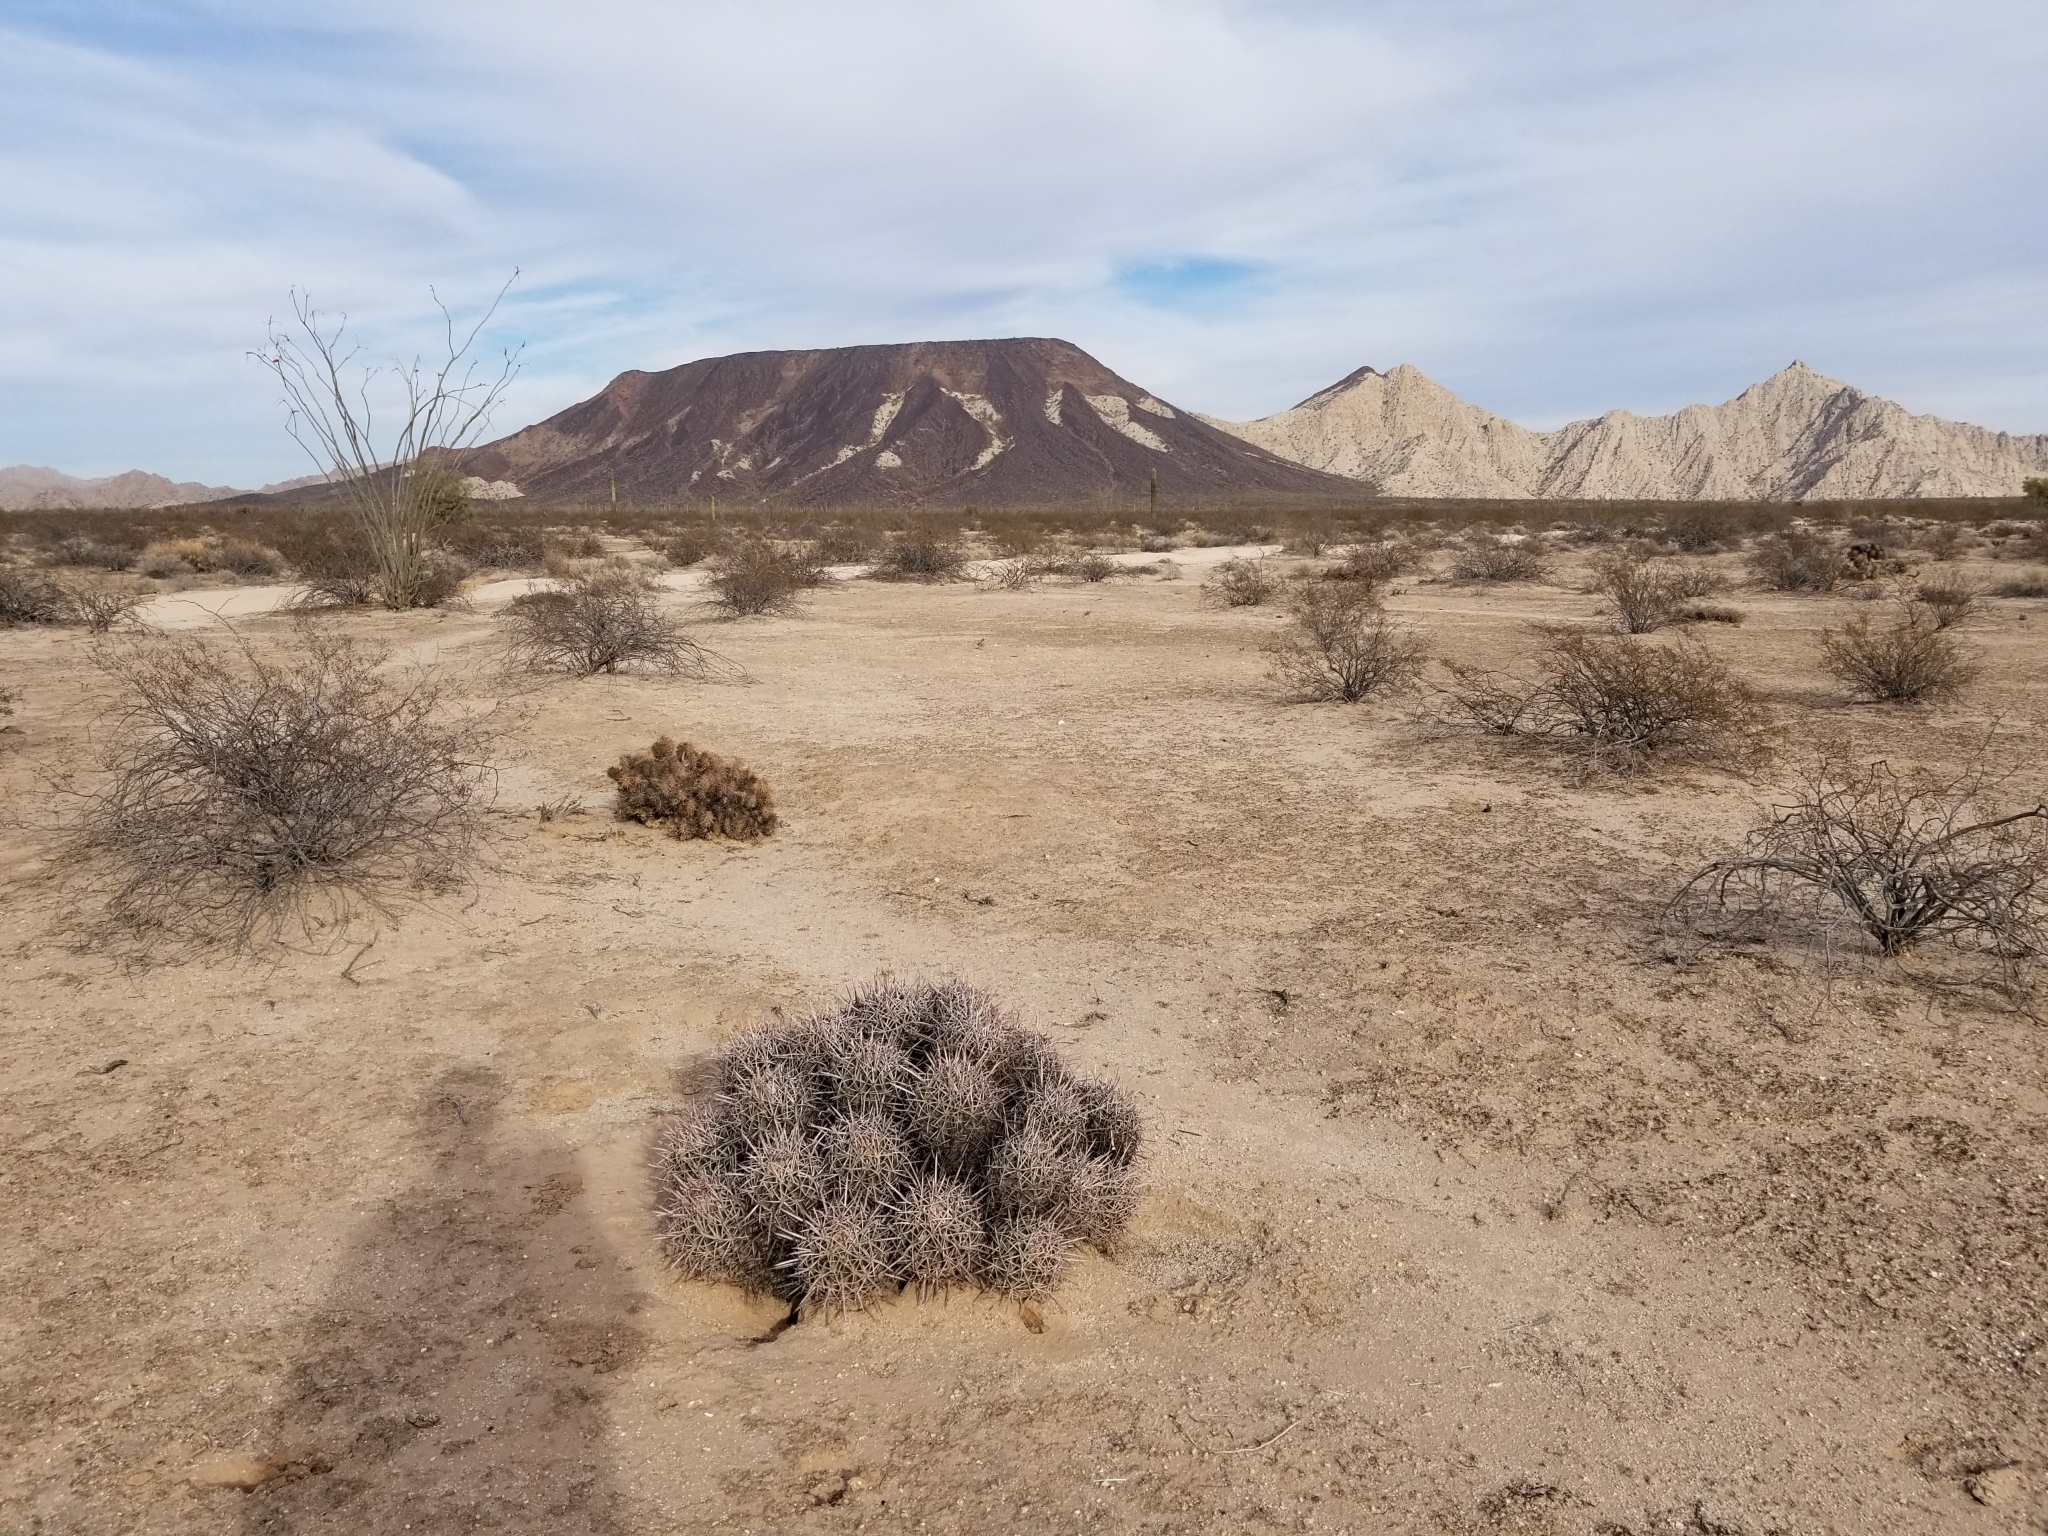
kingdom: Plantae
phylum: Tracheophyta
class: Magnoliopsida
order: Caryophyllales
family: Cactaceae
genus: Echinocactus
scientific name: Echinocactus polycephalus
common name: Cottontop cactus
